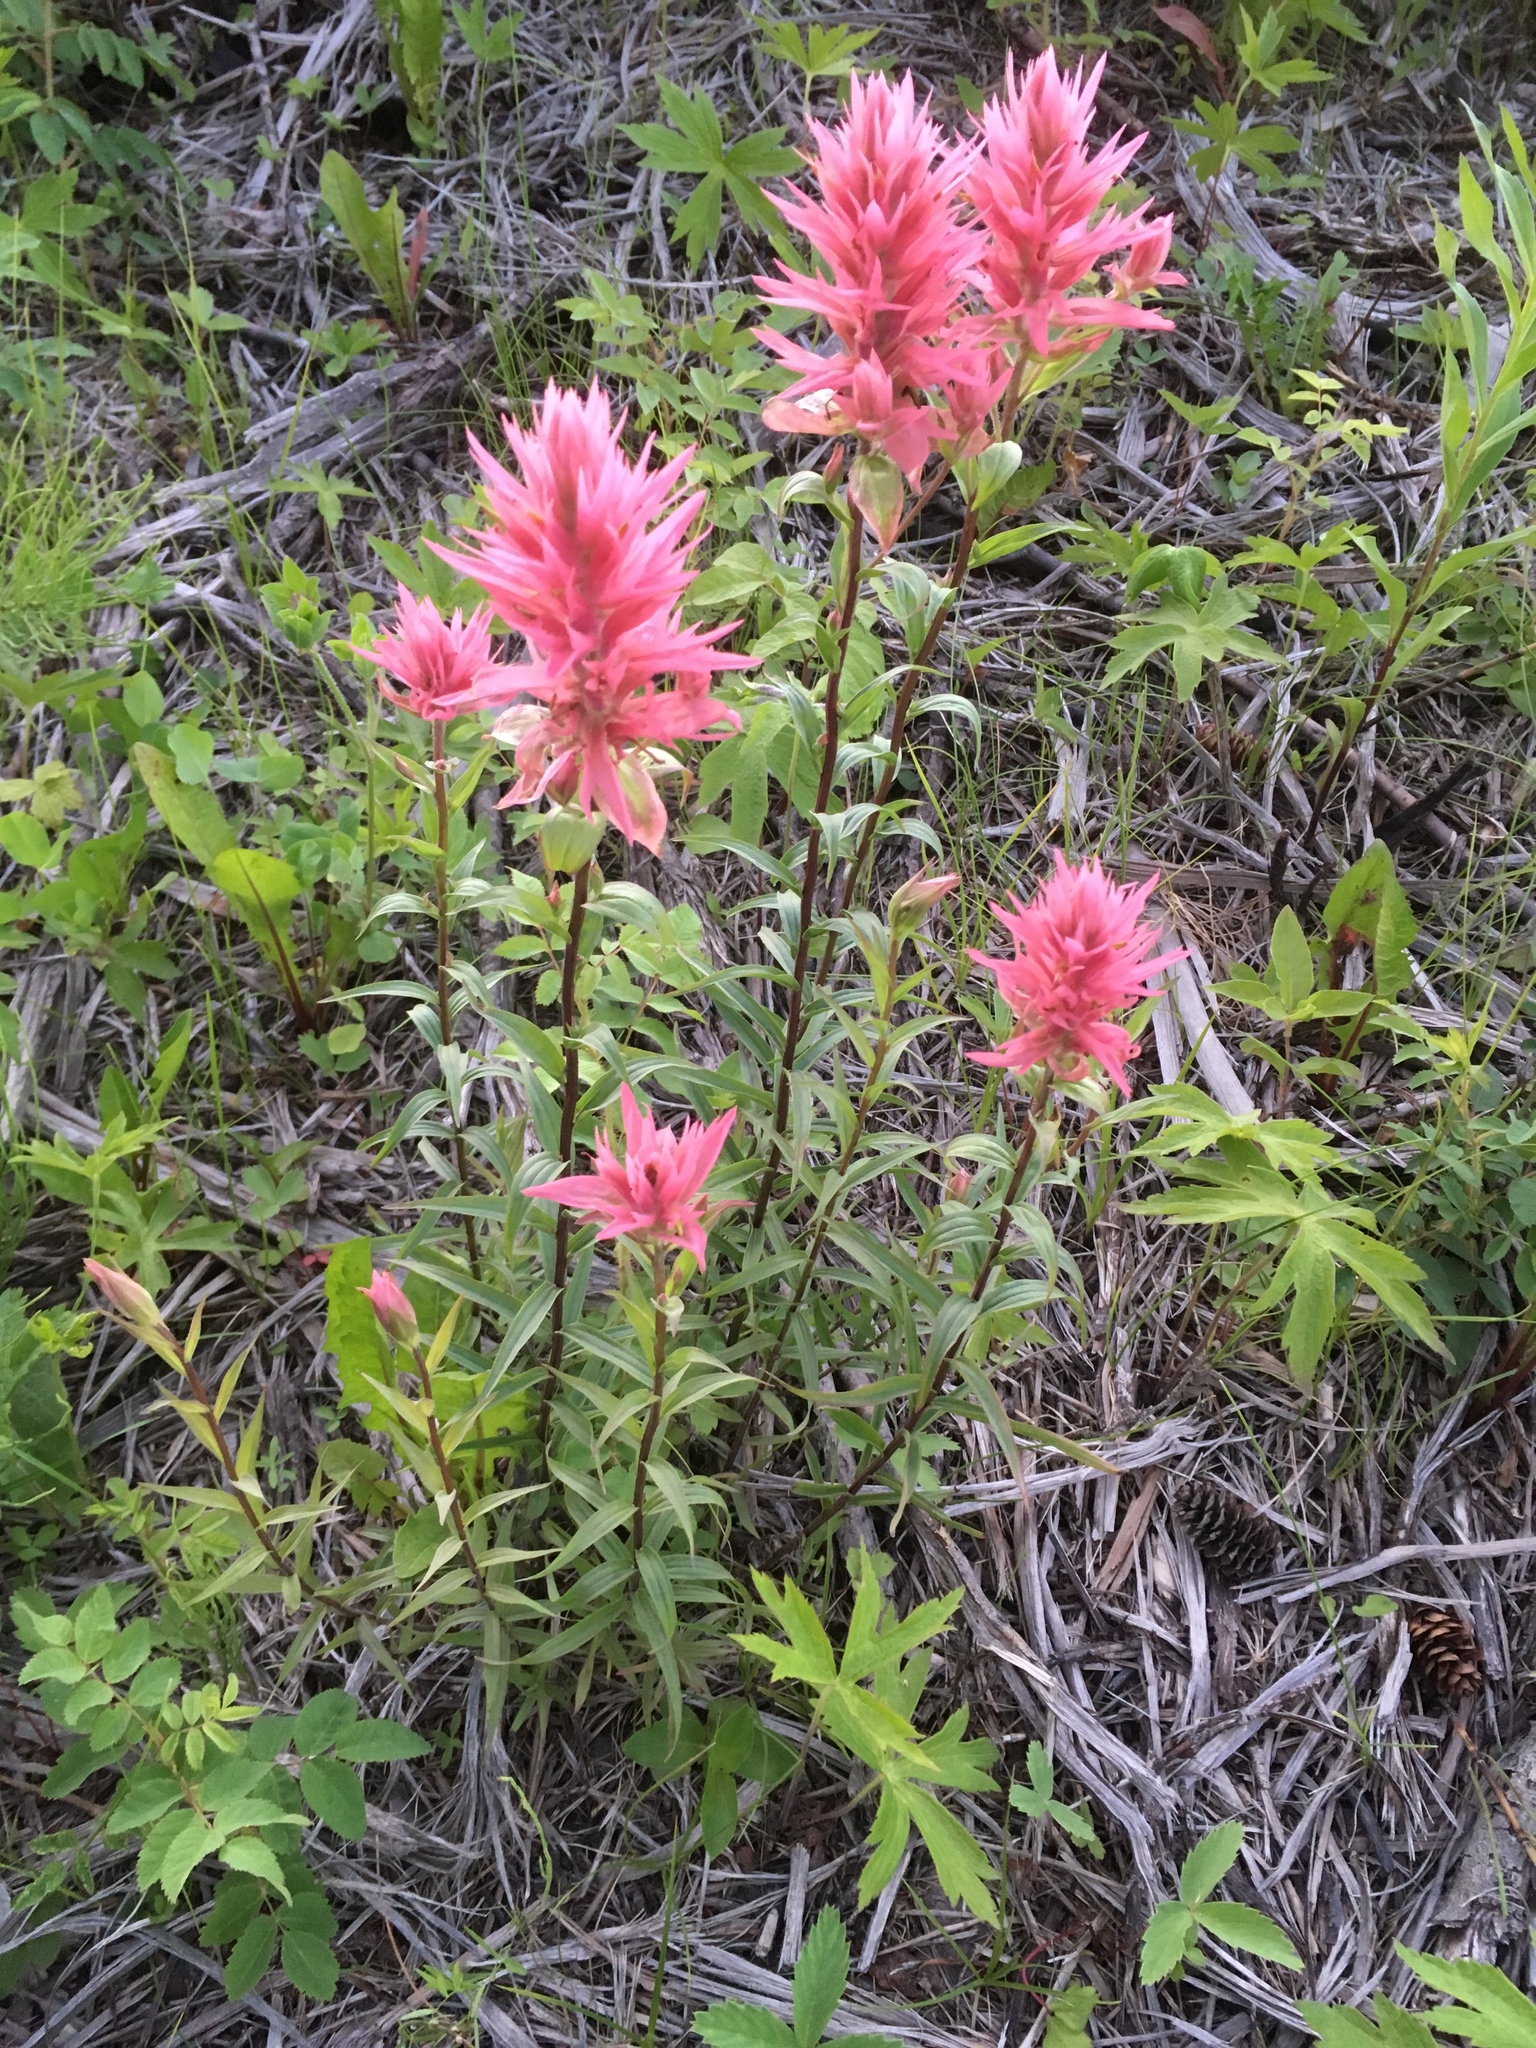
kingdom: Plantae
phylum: Tracheophyta
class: Magnoliopsida
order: Lamiales
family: Orobanchaceae
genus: Castilleja
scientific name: Castilleja miniata
